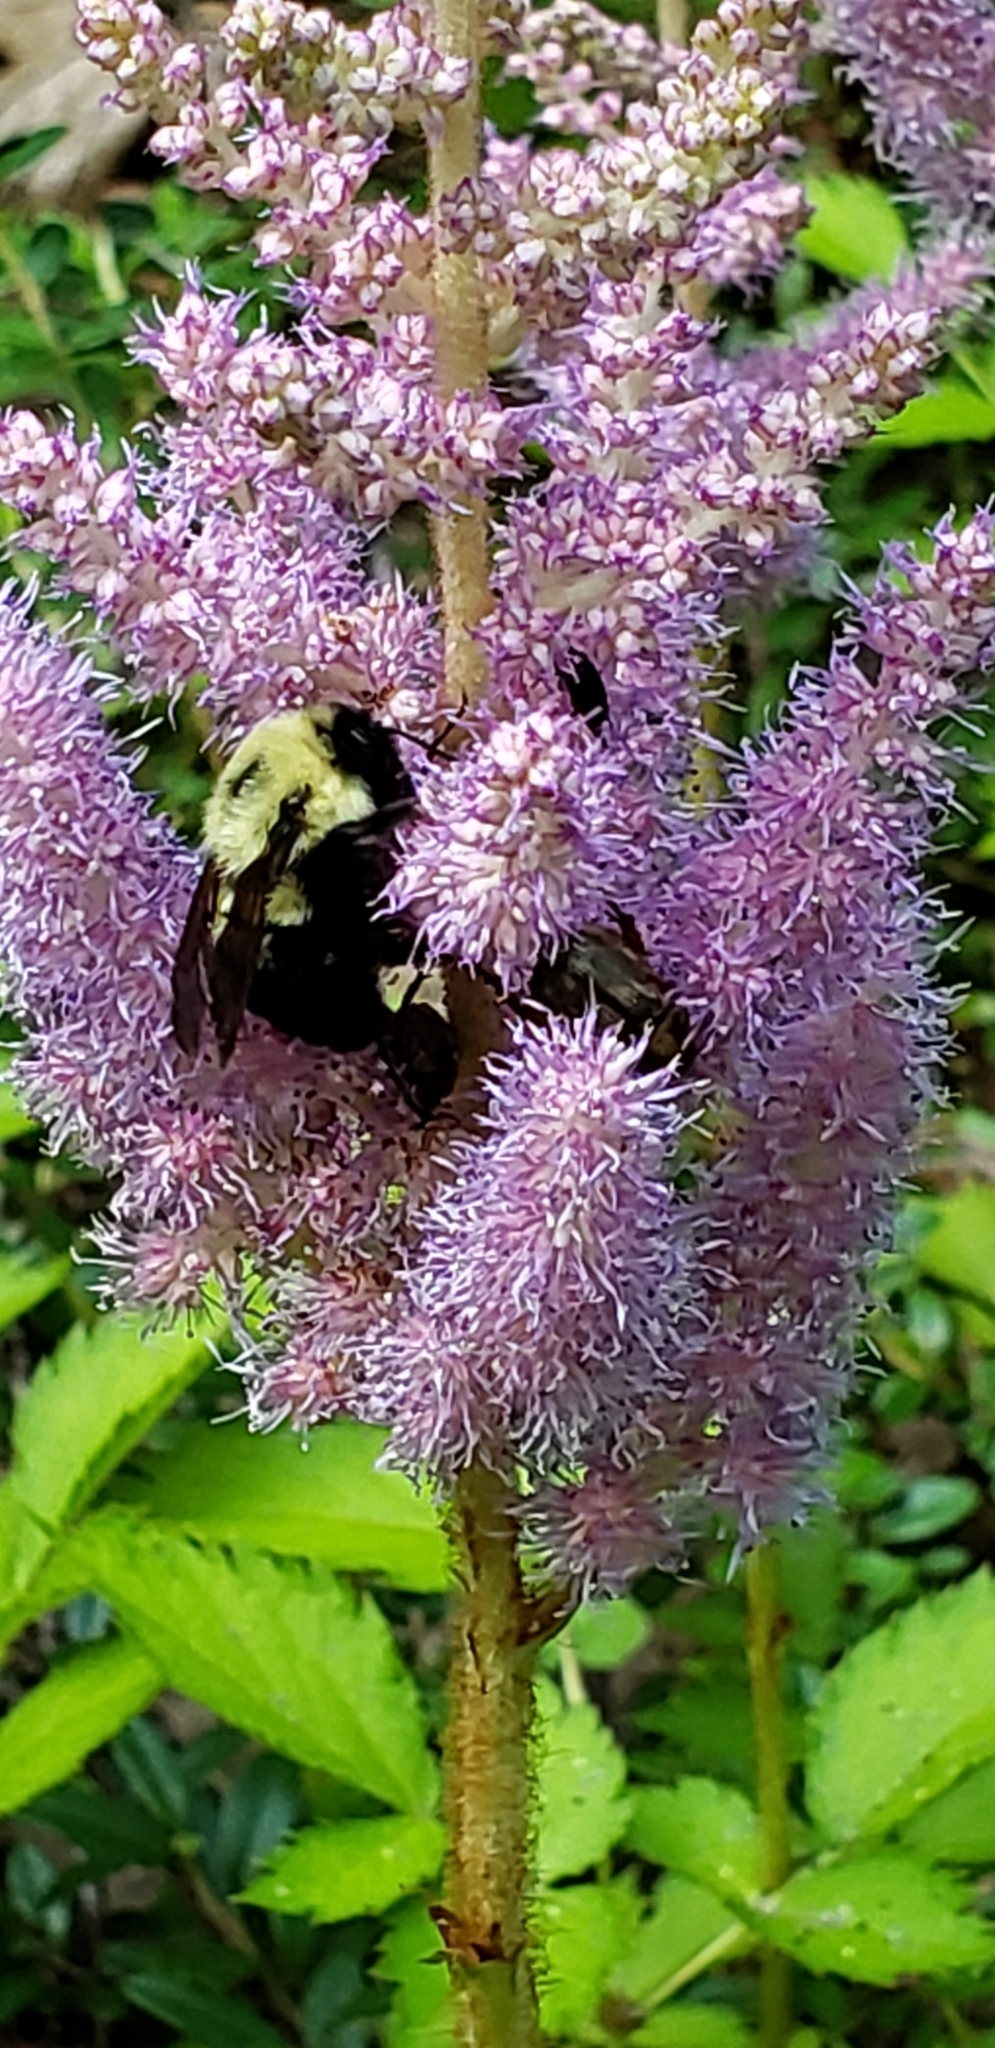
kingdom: Animalia
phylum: Arthropoda
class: Insecta
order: Hymenoptera
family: Apidae
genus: Bombus
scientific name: Bombus bimaculatus
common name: Two-spotted bumble bee
